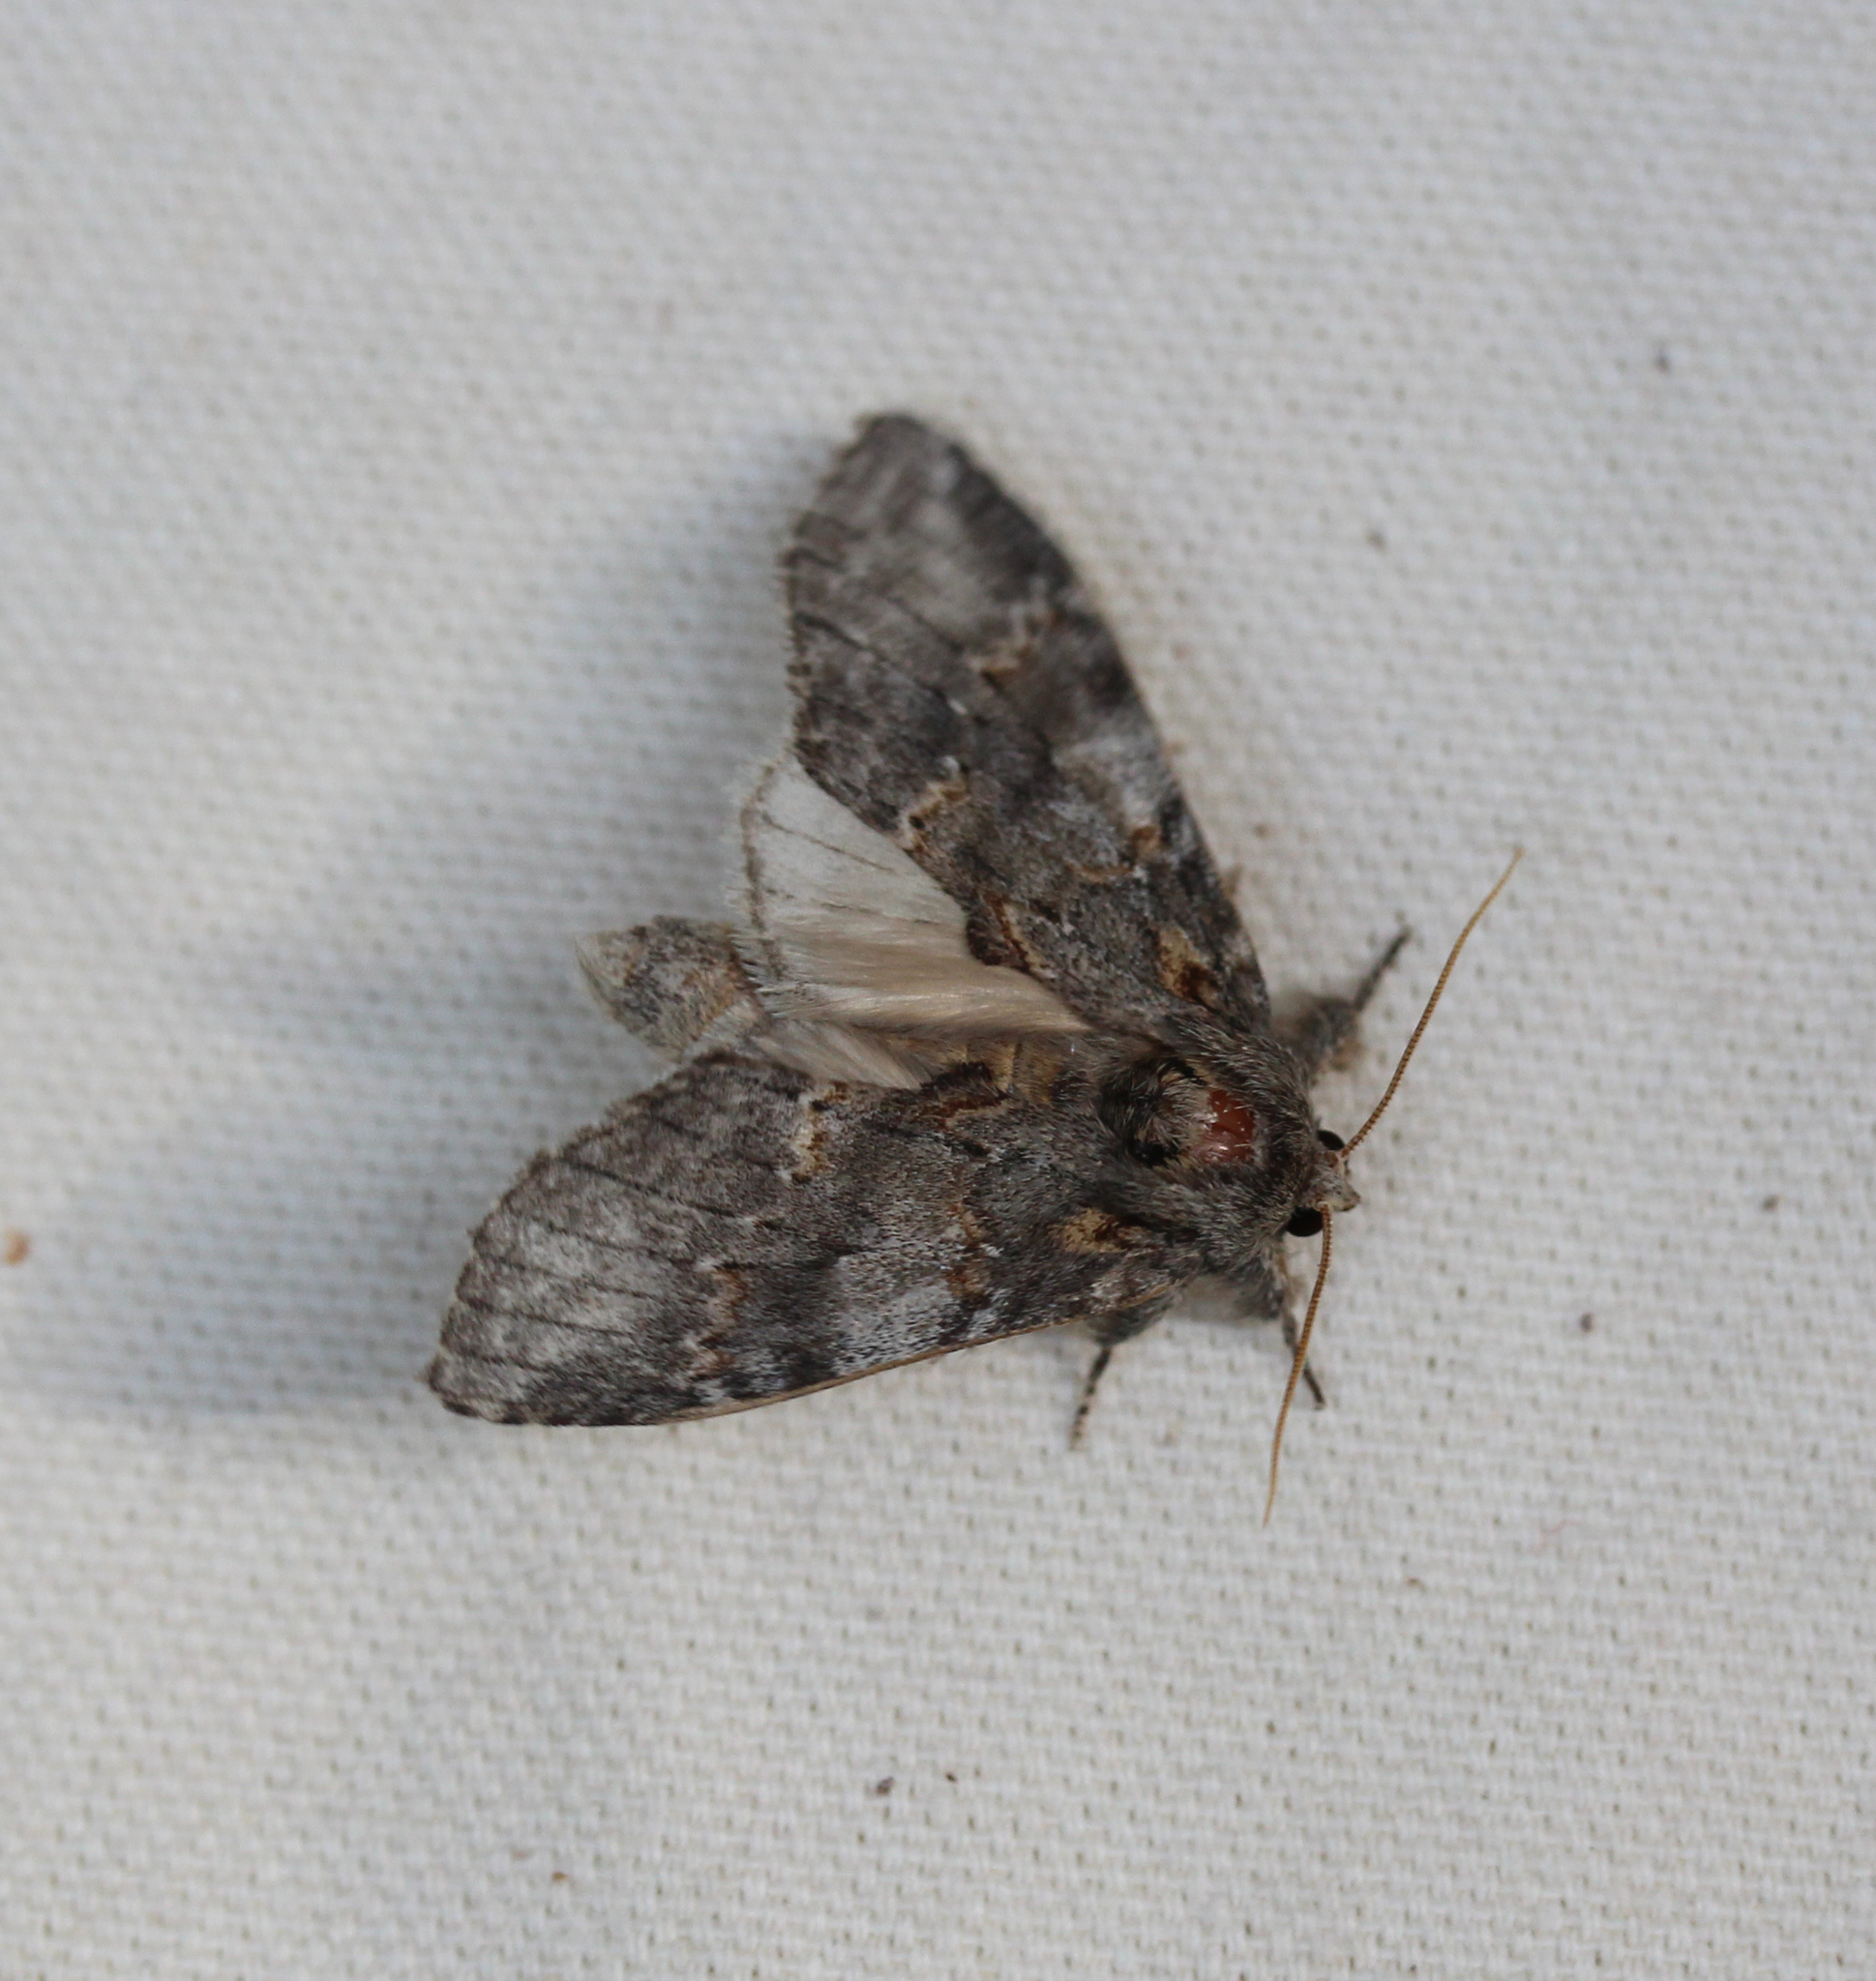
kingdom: Animalia
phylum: Arthropoda
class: Insecta
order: Lepidoptera
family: Notodontidae
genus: Peridea
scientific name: Peridea angulosa
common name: Angulose prominent
